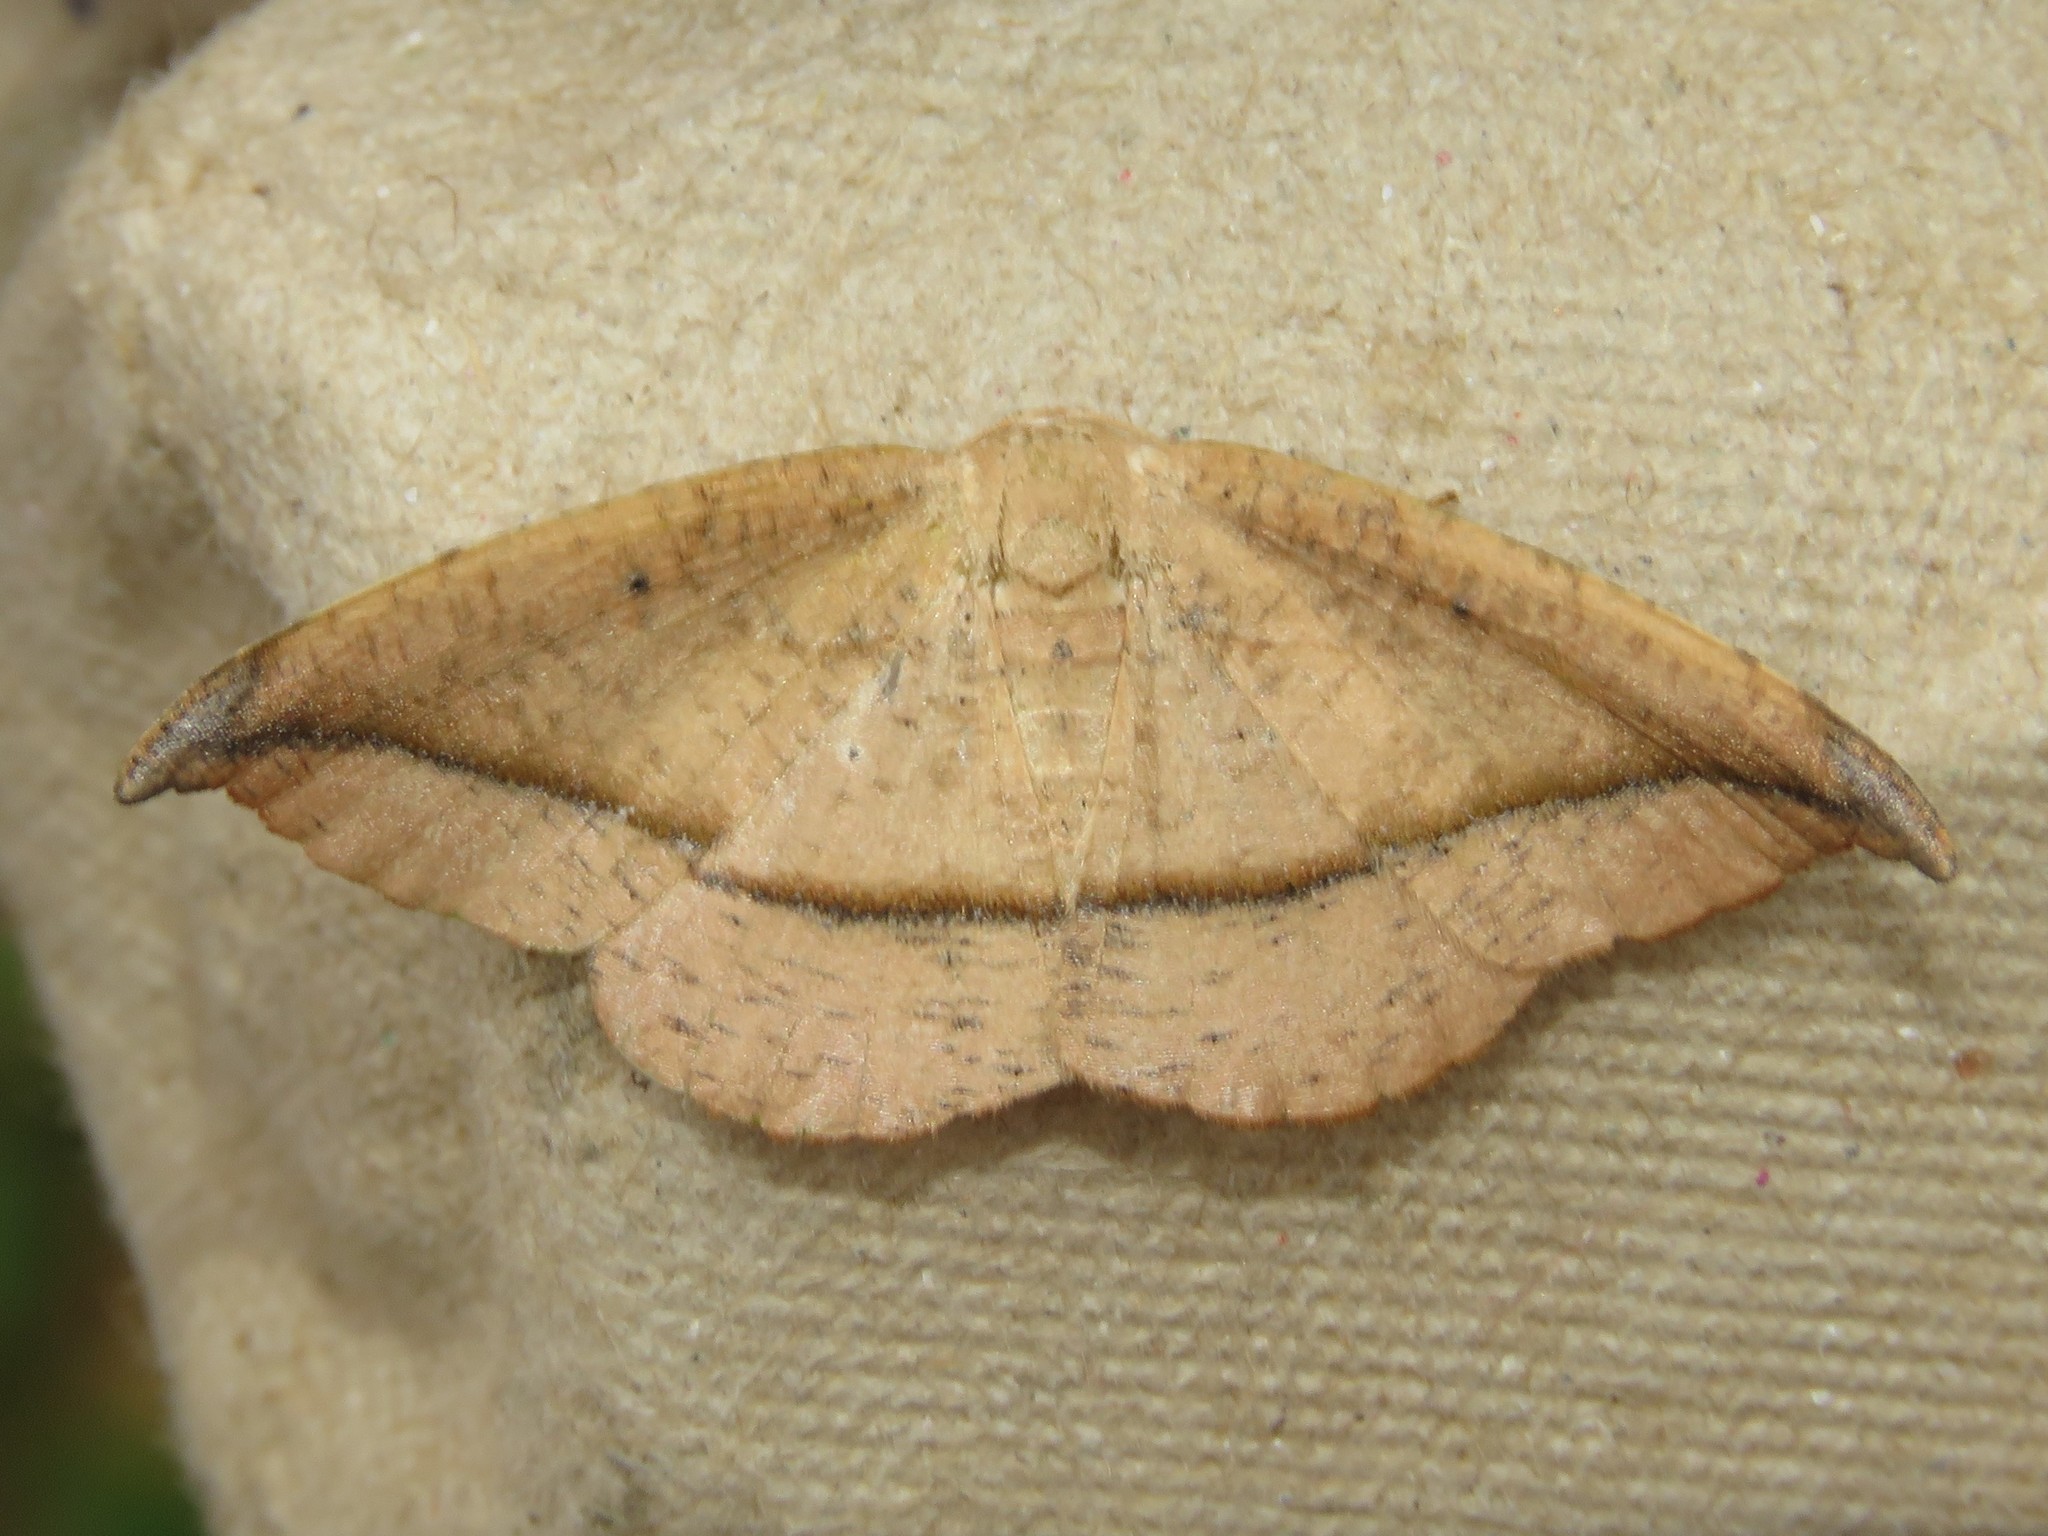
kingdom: Animalia
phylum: Arthropoda
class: Insecta
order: Lepidoptera
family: Geometridae
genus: Patalene
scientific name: Patalene olyzonaria
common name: Juniper geometer moth
